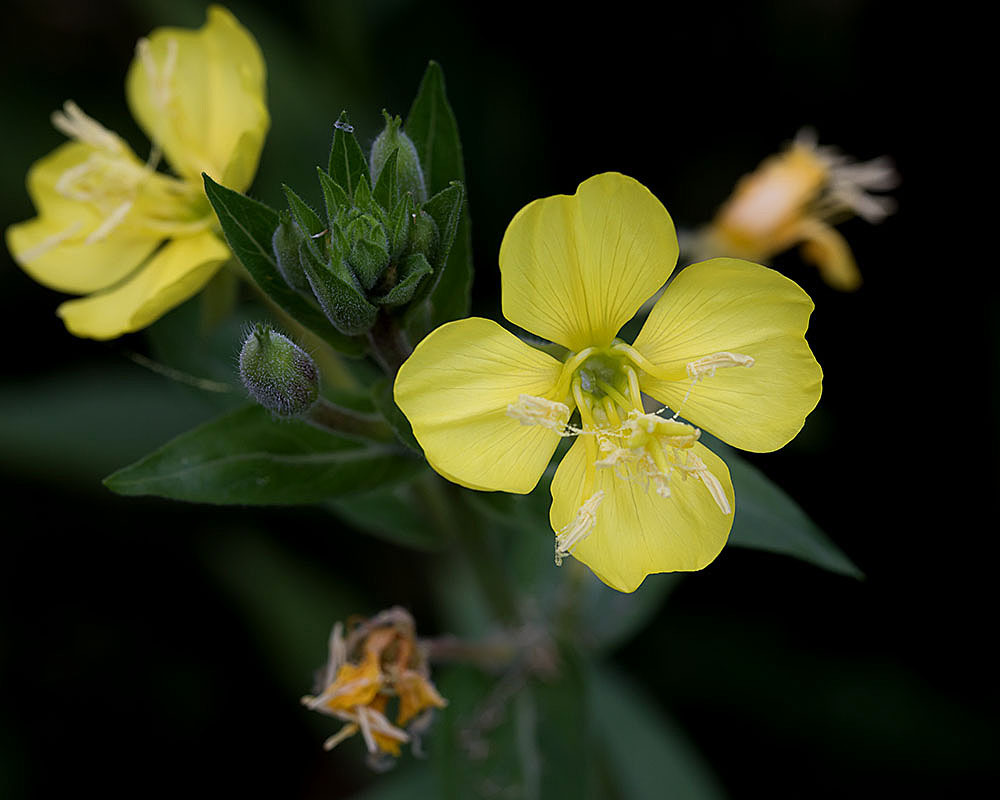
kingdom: Plantae
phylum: Tracheophyta
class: Magnoliopsida
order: Myrtales
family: Onagraceae
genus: Oenothera
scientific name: Oenothera biennis
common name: Common evening-primrose
